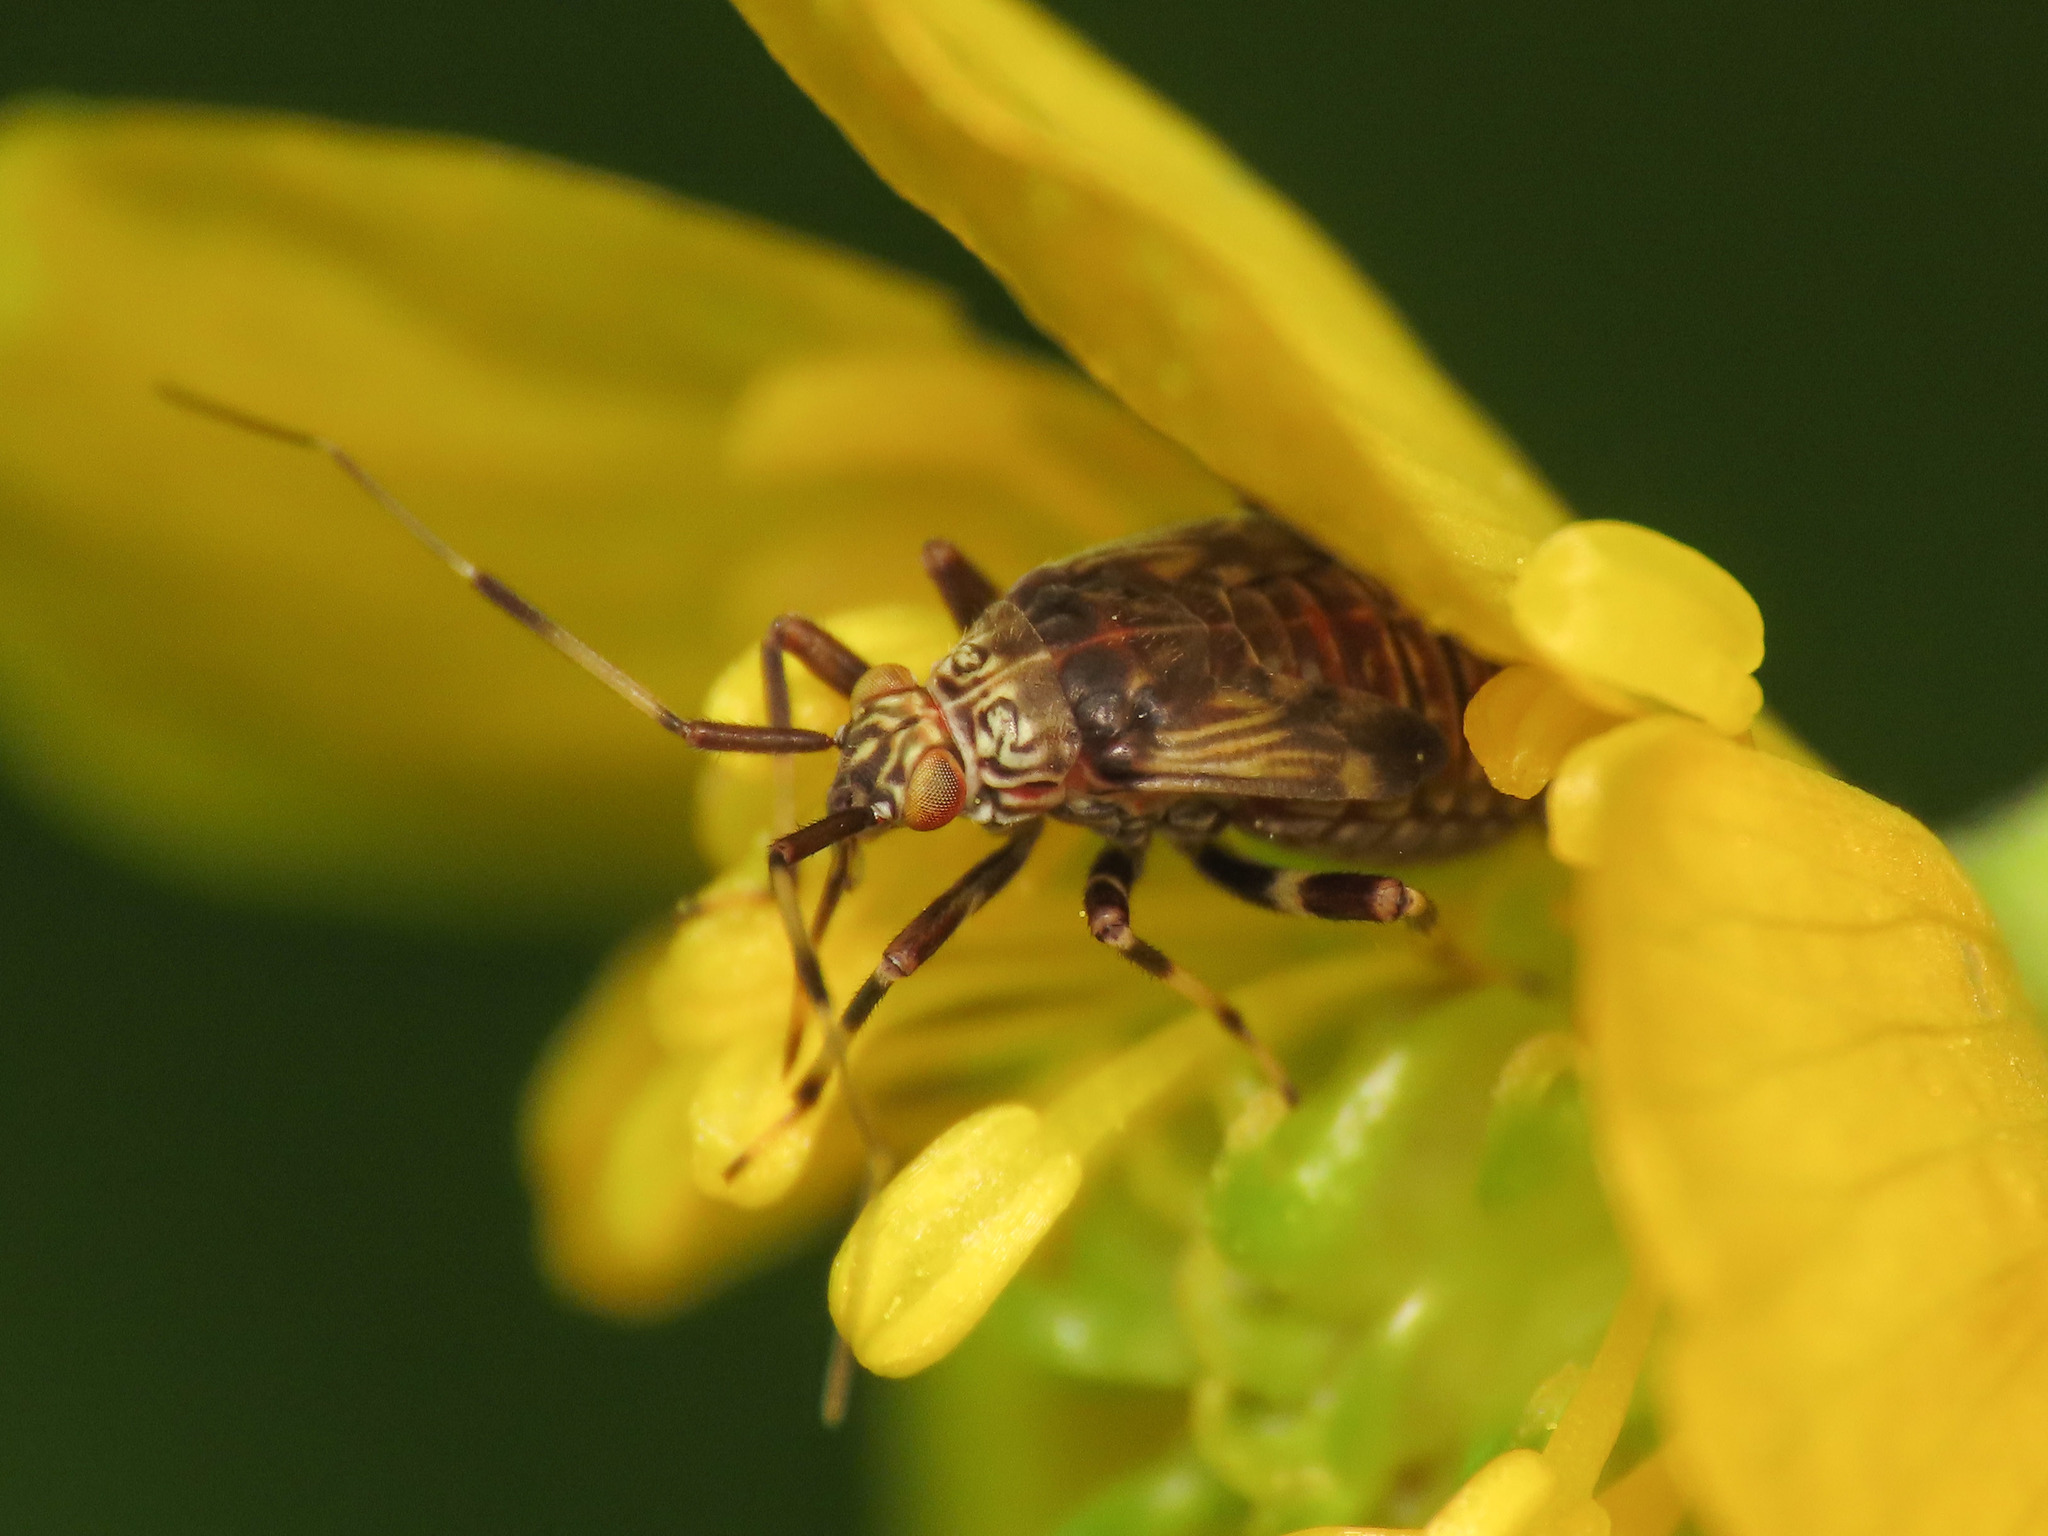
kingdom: Animalia
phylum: Arthropoda
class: Insecta
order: Hemiptera
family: Miridae
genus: Rhabdomiris
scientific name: Rhabdomiris striatellus
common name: Plant bug
